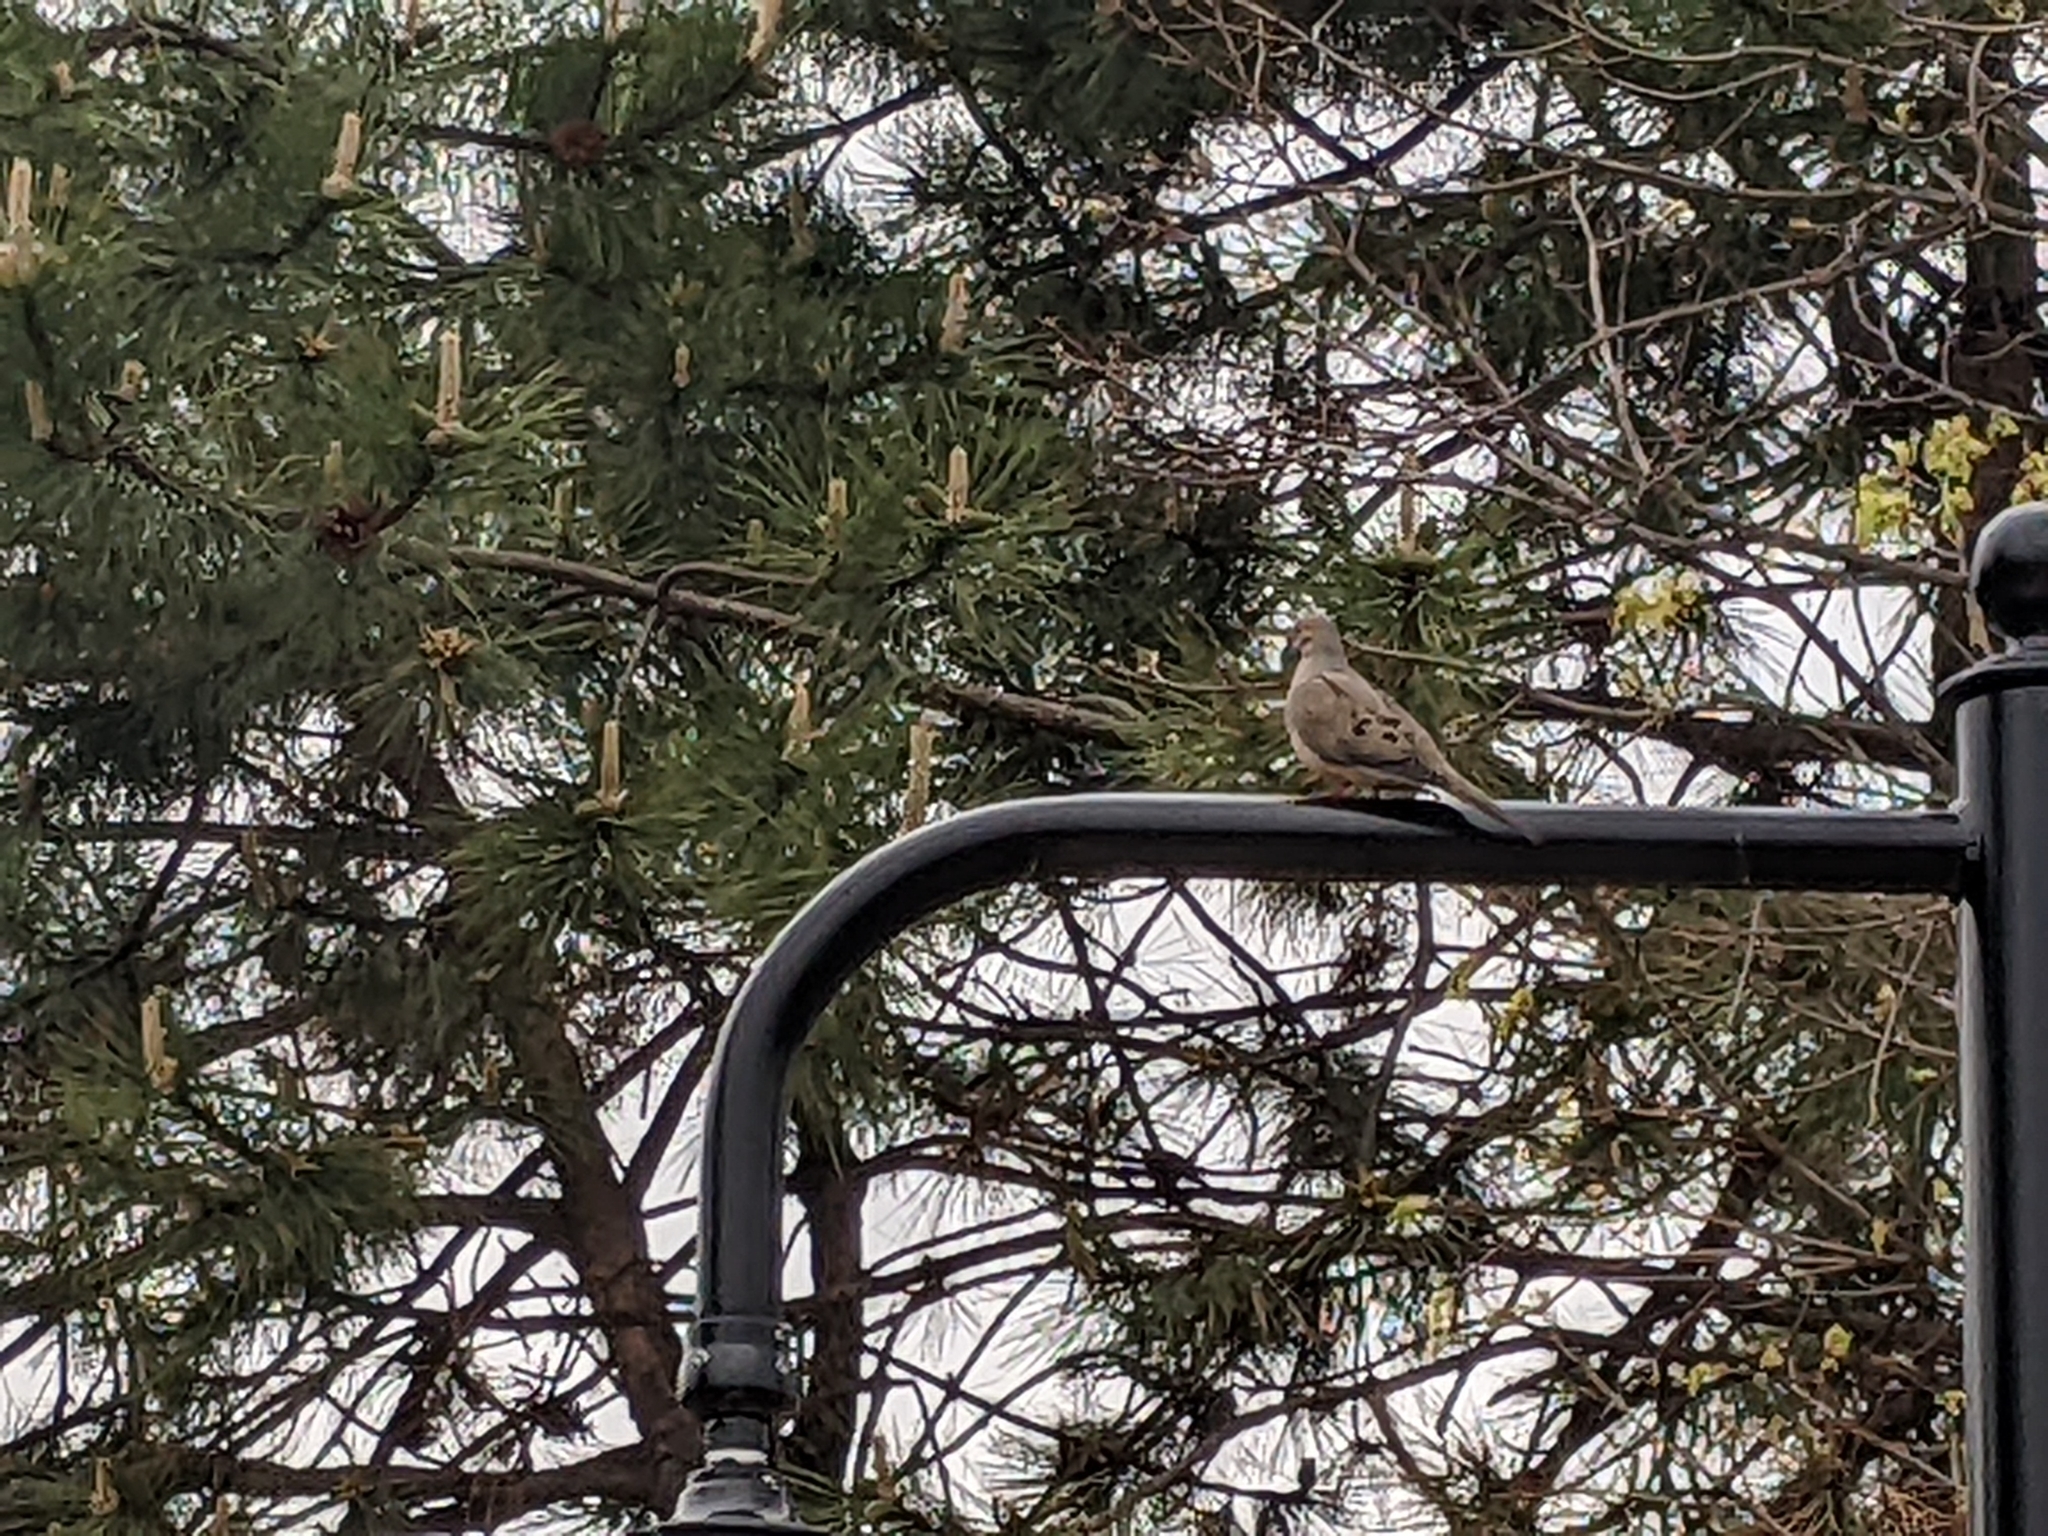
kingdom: Animalia
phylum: Chordata
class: Aves
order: Columbiformes
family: Columbidae
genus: Zenaida
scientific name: Zenaida macroura
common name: Mourning dove
